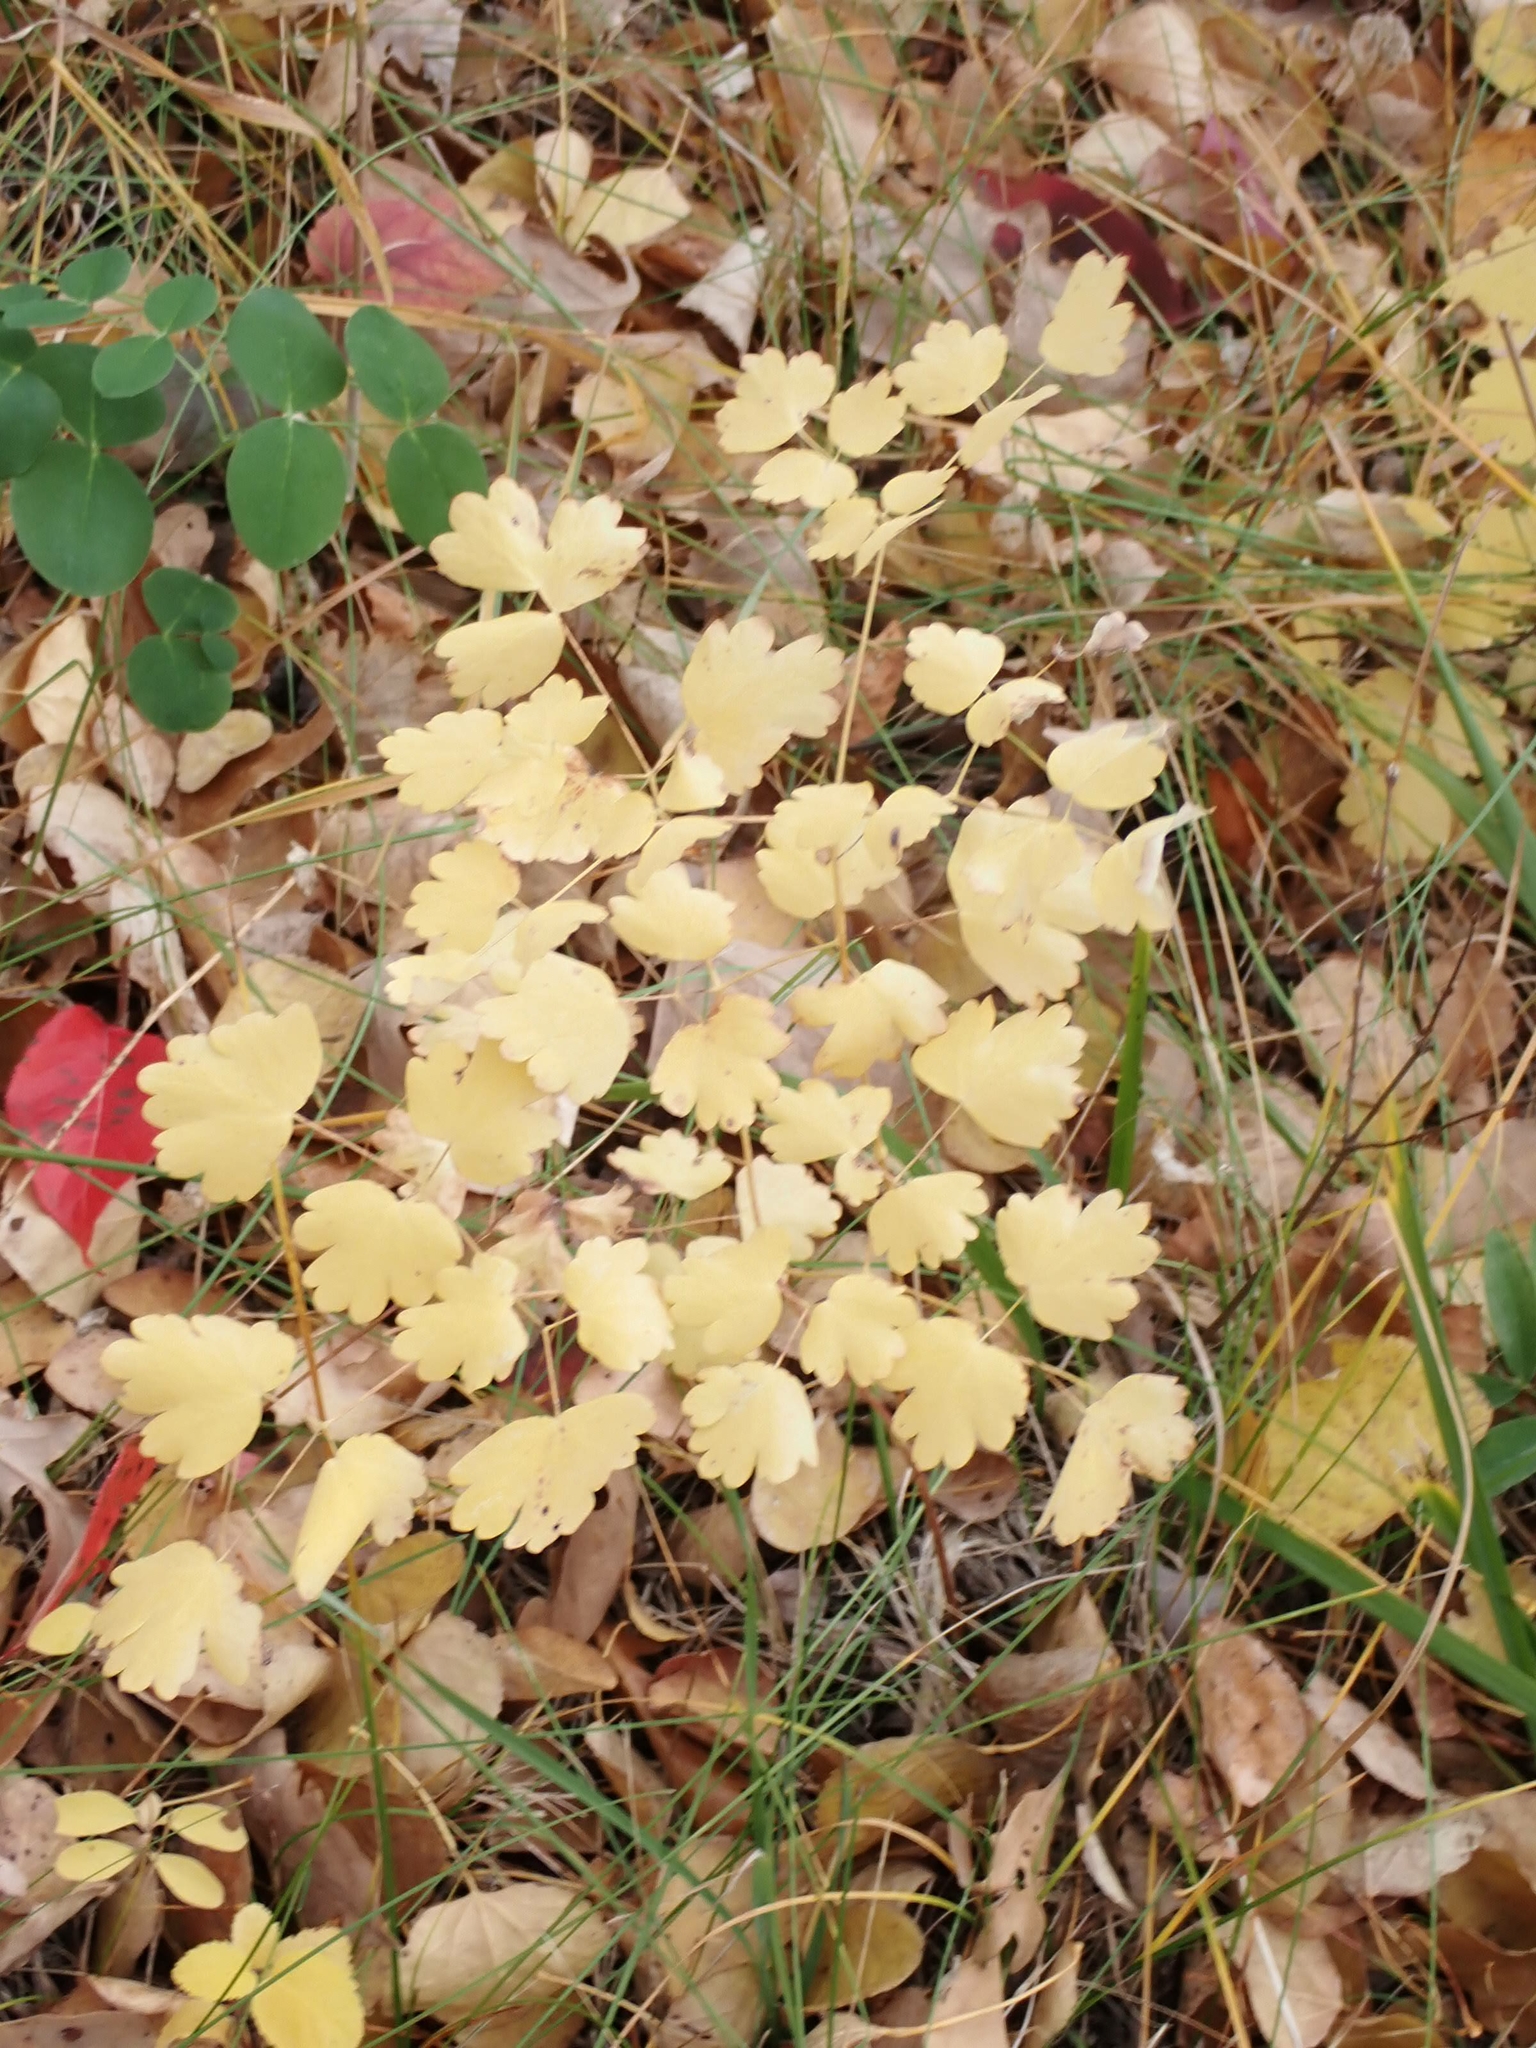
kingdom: Plantae
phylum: Tracheophyta
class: Magnoliopsida
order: Ranunculales
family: Ranunculaceae
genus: Thalictrum
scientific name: Thalictrum venulosum
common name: Early meadow-rue
